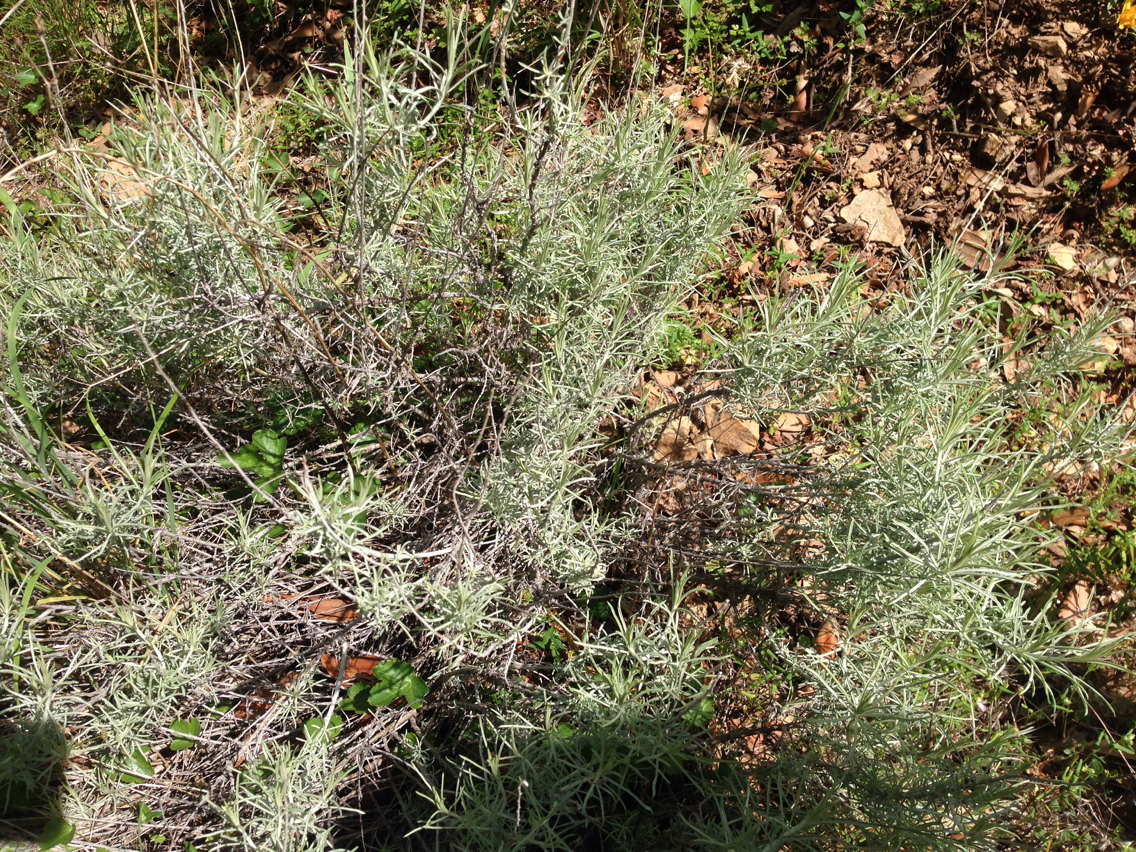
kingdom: Plantae
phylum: Tracheophyta
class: Magnoliopsida
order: Asterales
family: Asteraceae
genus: Artemisia
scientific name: Artemisia californica
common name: California sagebrush
